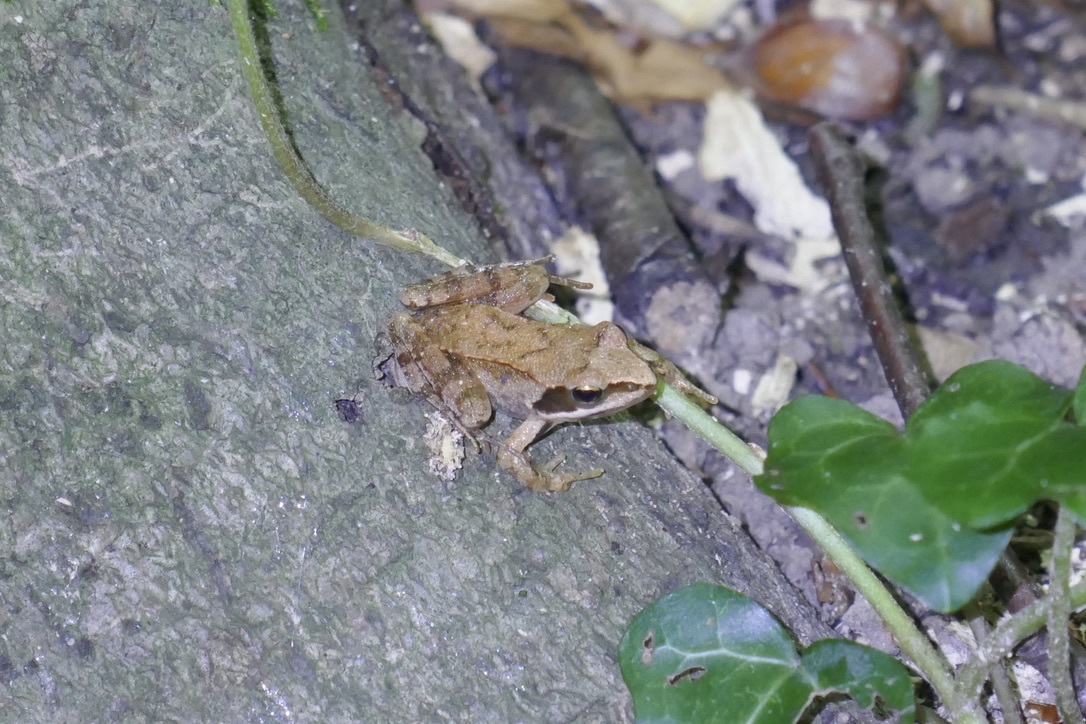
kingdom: Animalia
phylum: Chordata
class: Amphibia
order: Anura
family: Ranidae
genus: Rana
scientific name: Rana dalmatina
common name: Agile frog
